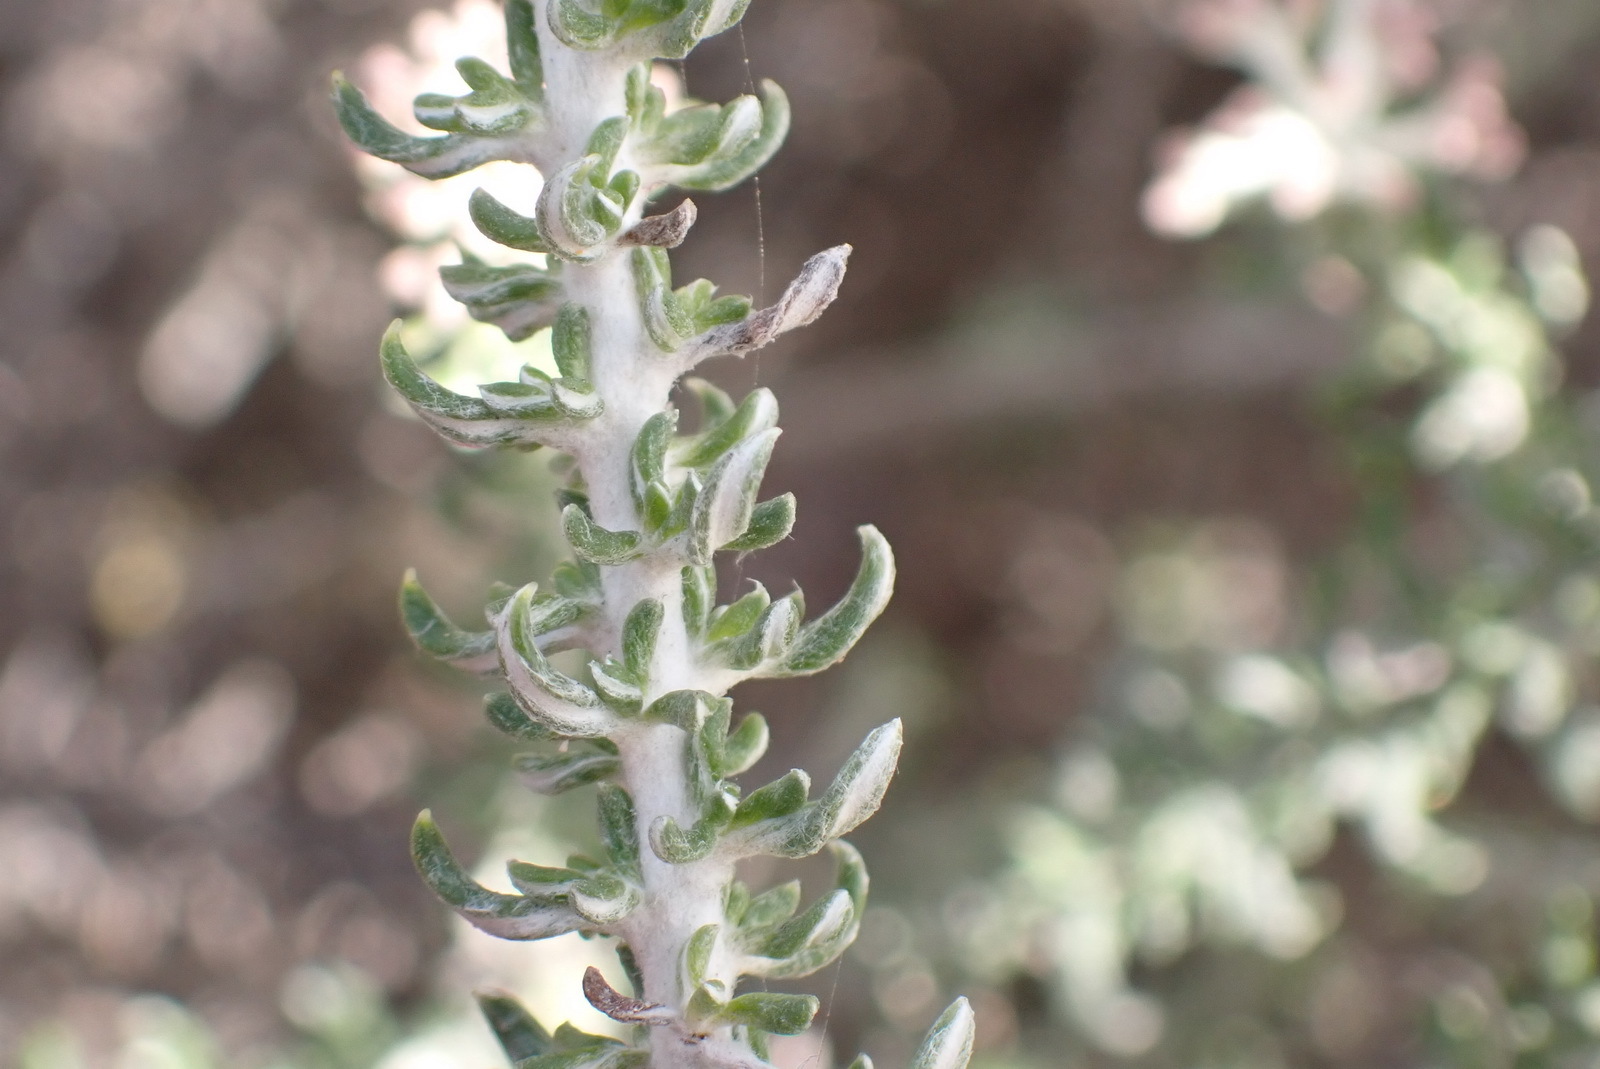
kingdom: Plantae
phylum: Tracheophyta
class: Magnoliopsida
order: Asterales
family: Asteraceae
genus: Metalasia
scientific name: Metalasia muricata
